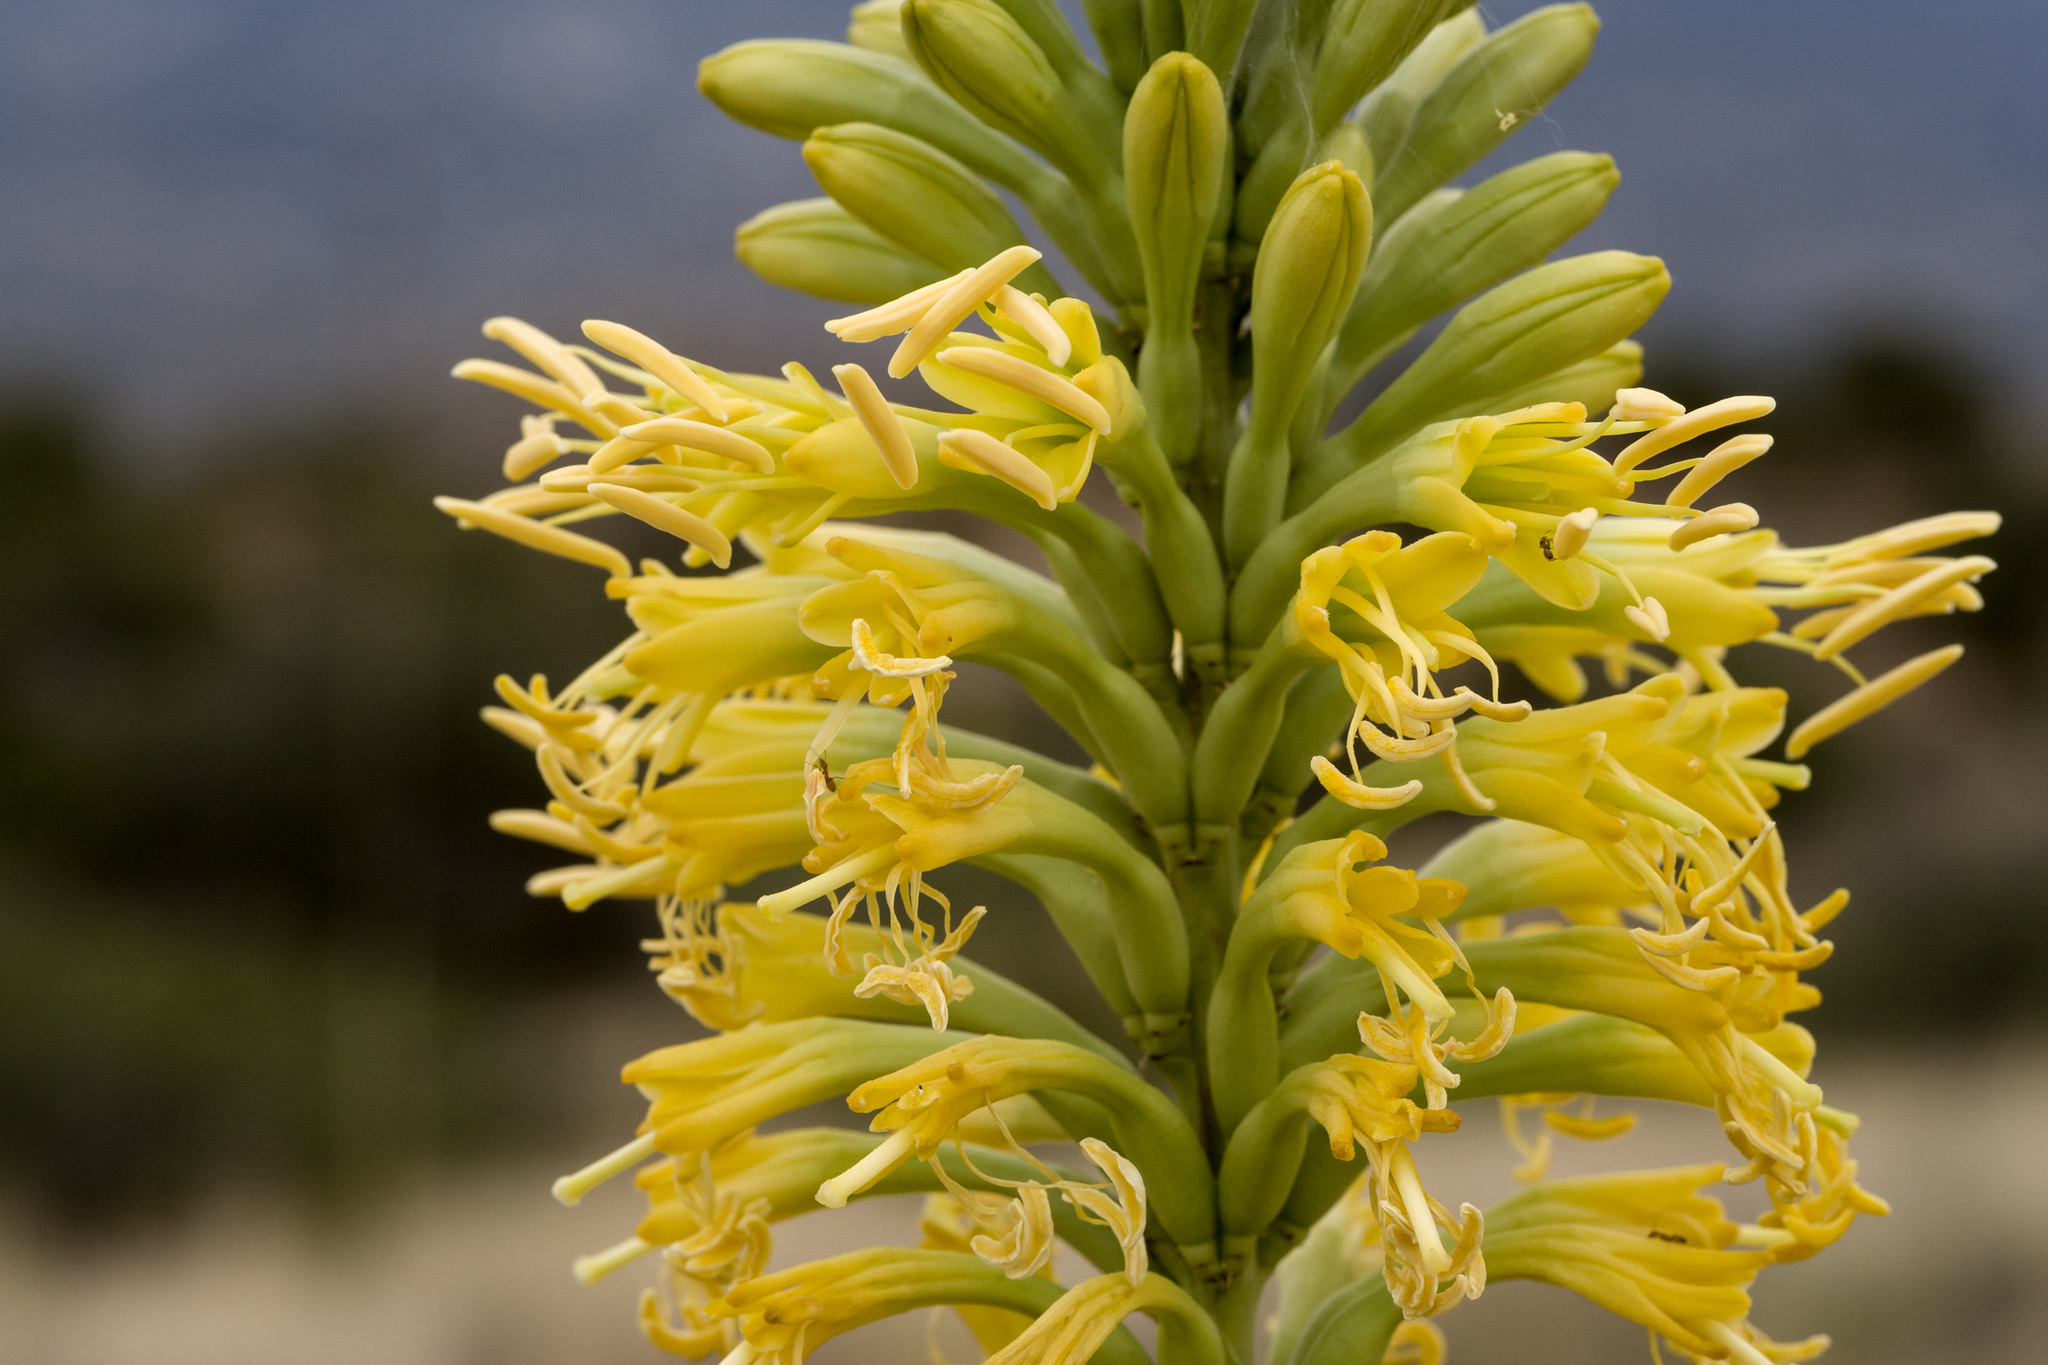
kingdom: Plantae
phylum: Tracheophyta
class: Liliopsida
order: Asparagales
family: Asparagaceae
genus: Agave
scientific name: Agave schottii
